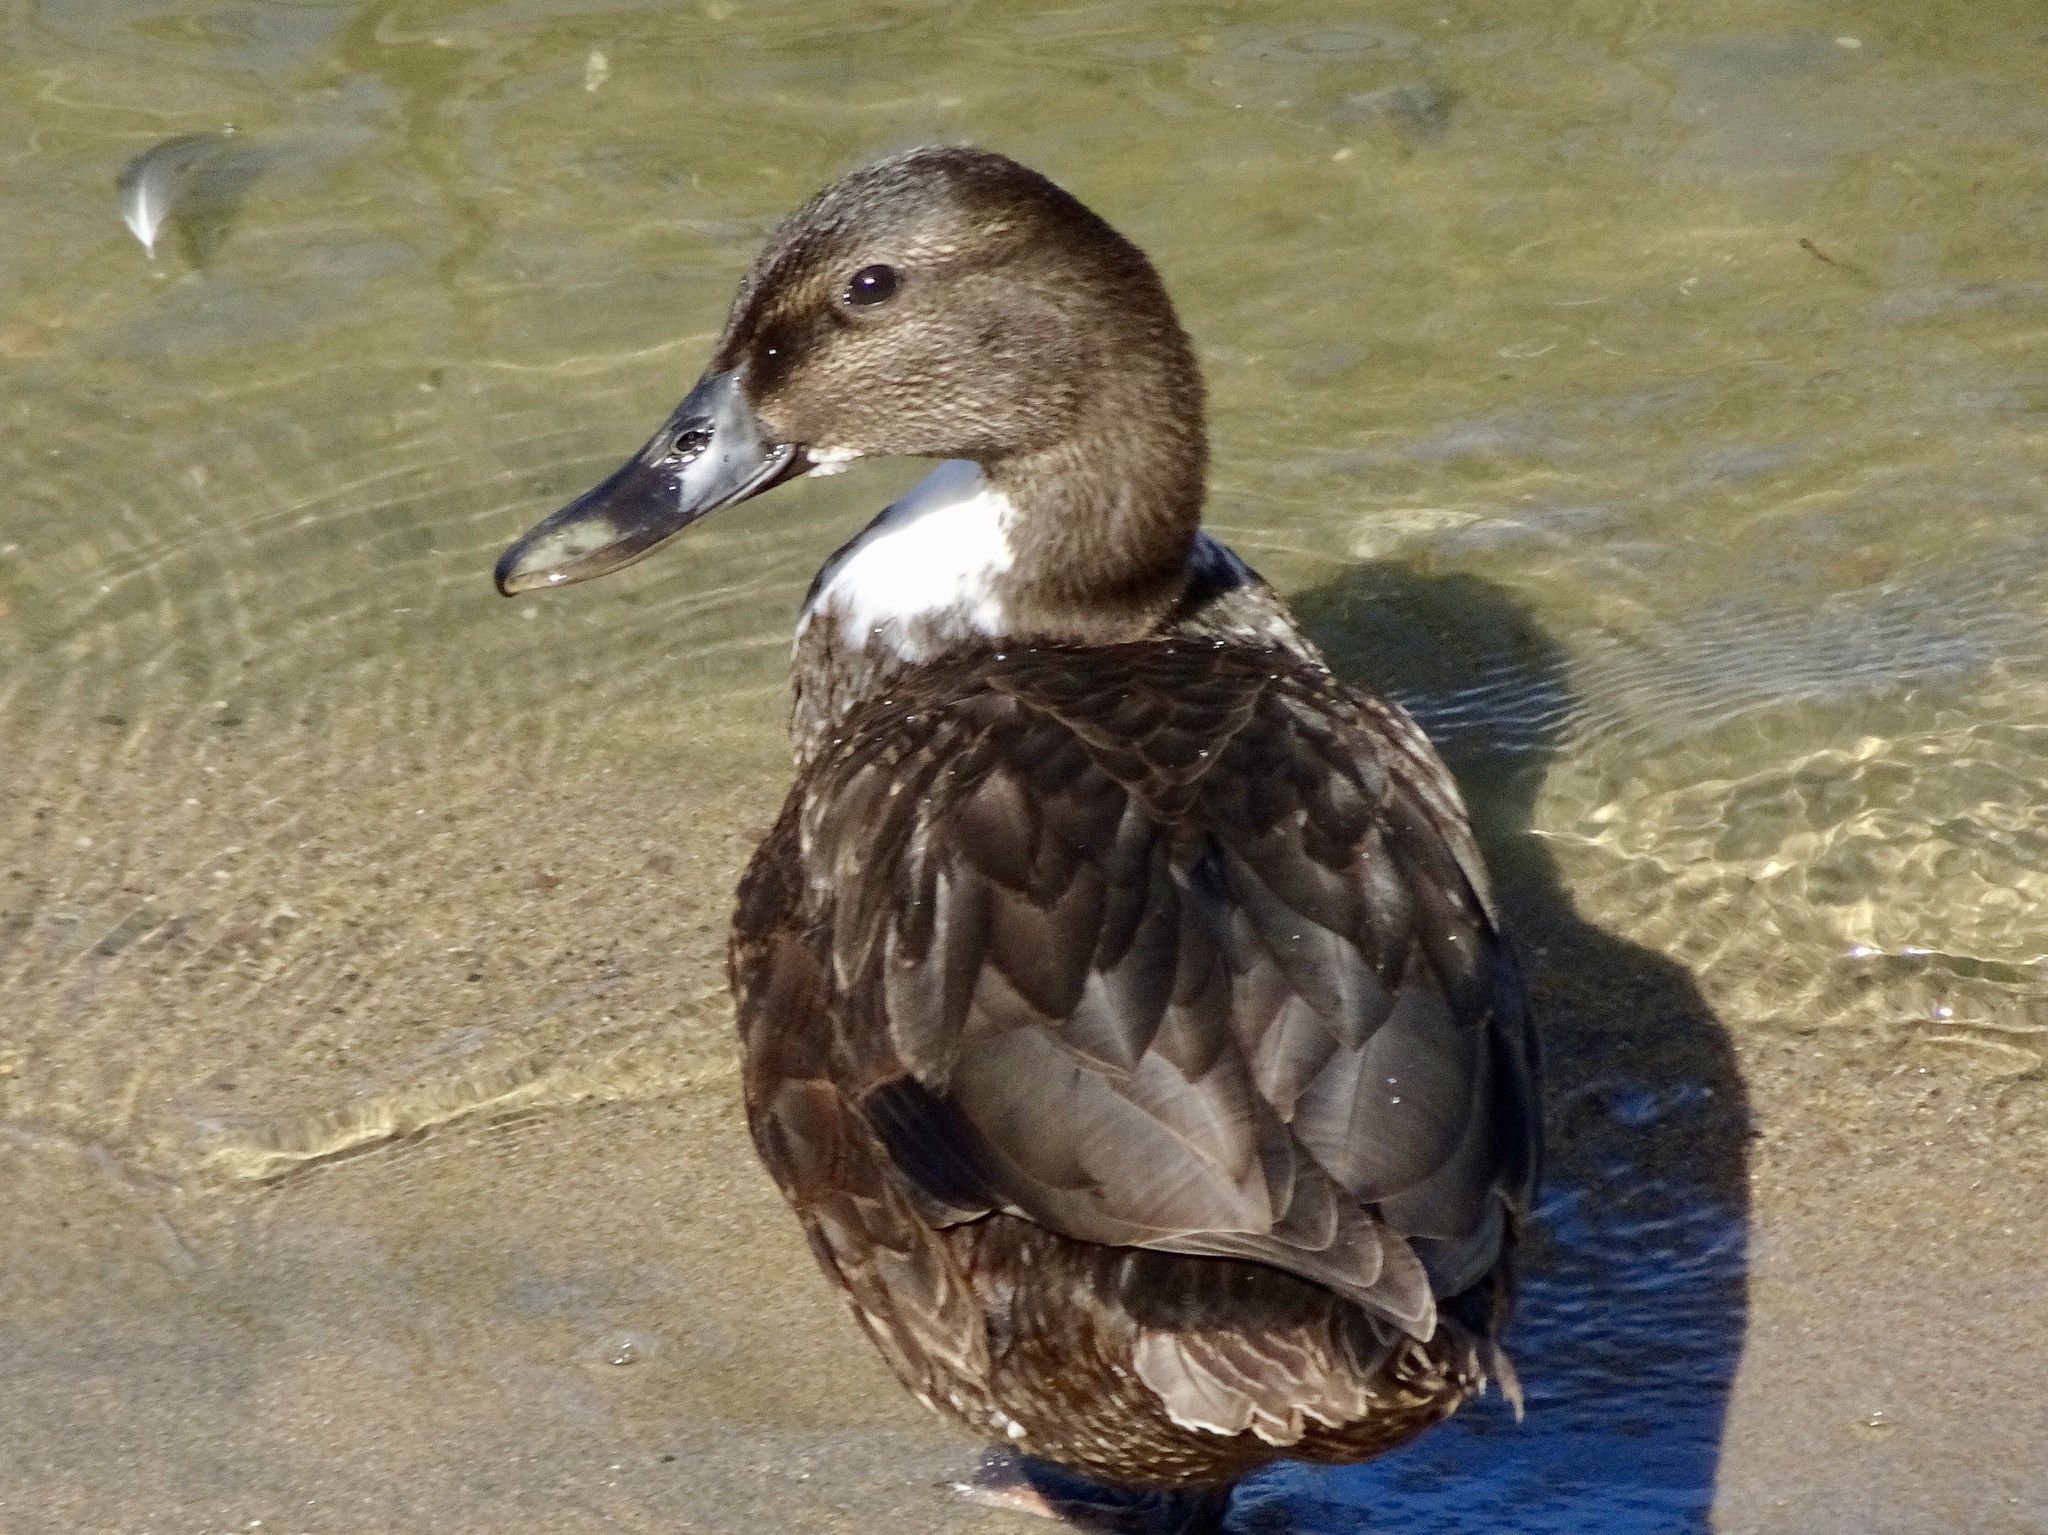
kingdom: Animalia
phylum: Chordata
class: Aves
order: Anseriformes
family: Anatidae
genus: Anas
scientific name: Anas platyrhynchos
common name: Mallard
